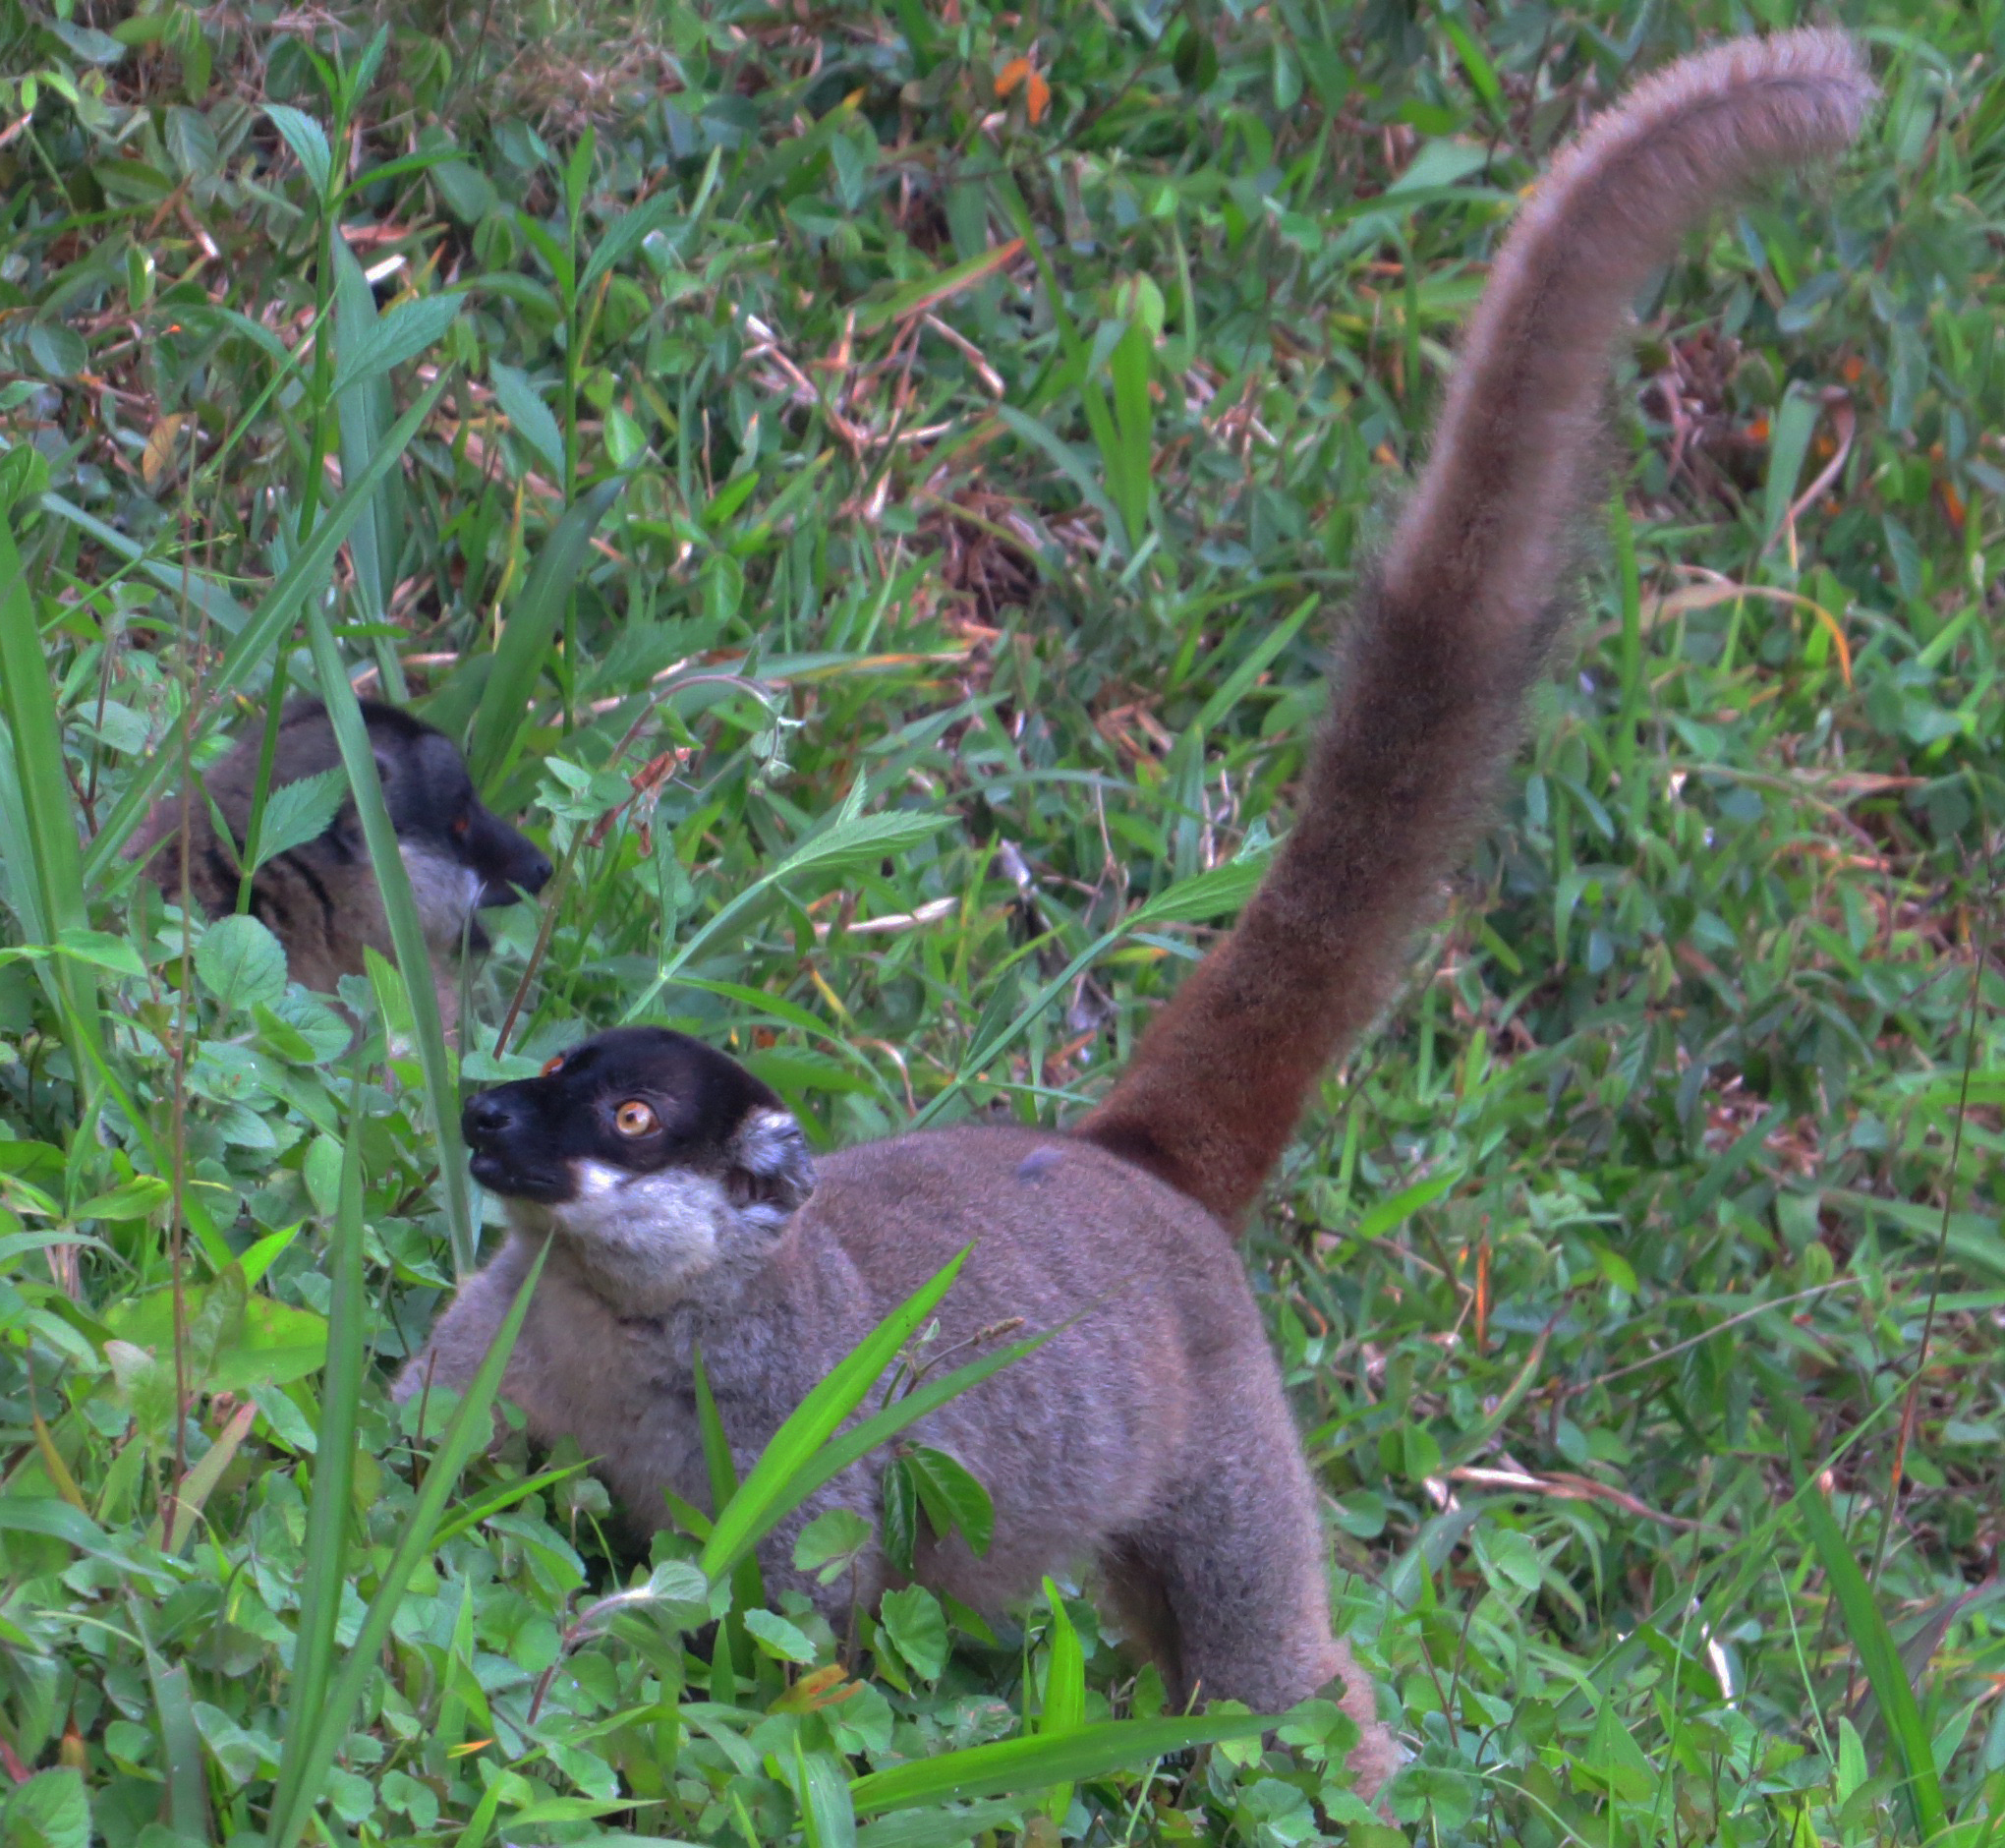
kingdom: Animalia
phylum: Chordata
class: Mammalia
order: Primates
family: Lemuridae
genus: Eulemur
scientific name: Eulemur fulvus
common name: Brown lemur
